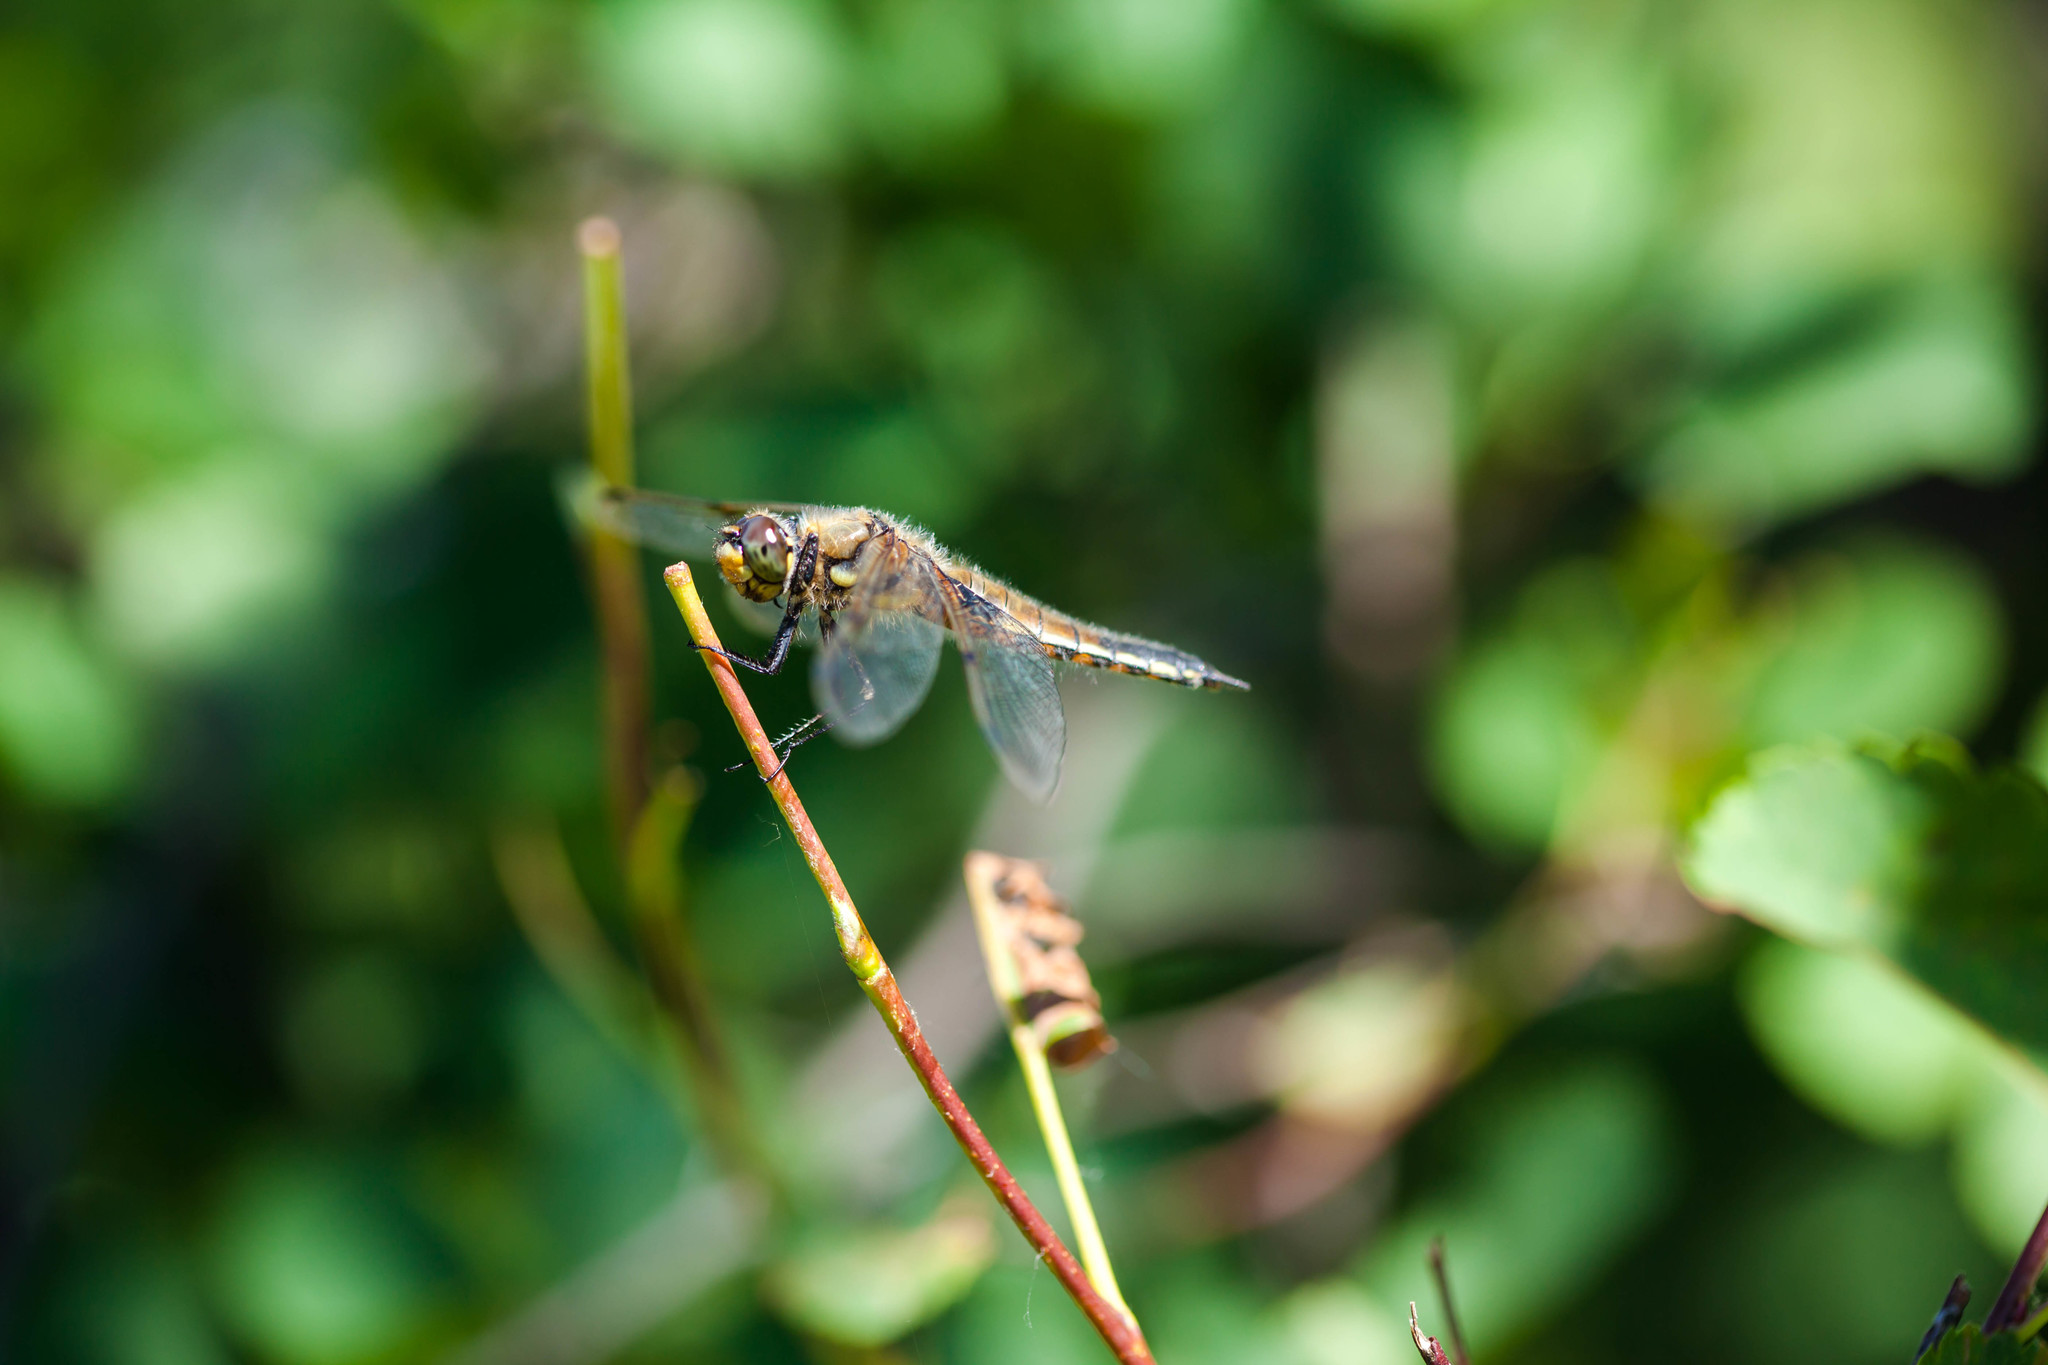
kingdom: Animalia
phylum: Arthropoda
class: Insecta
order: Odonata
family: Libellulidae
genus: Libellula
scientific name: Libellula quadrimaculata
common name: Four-spotted chaser
